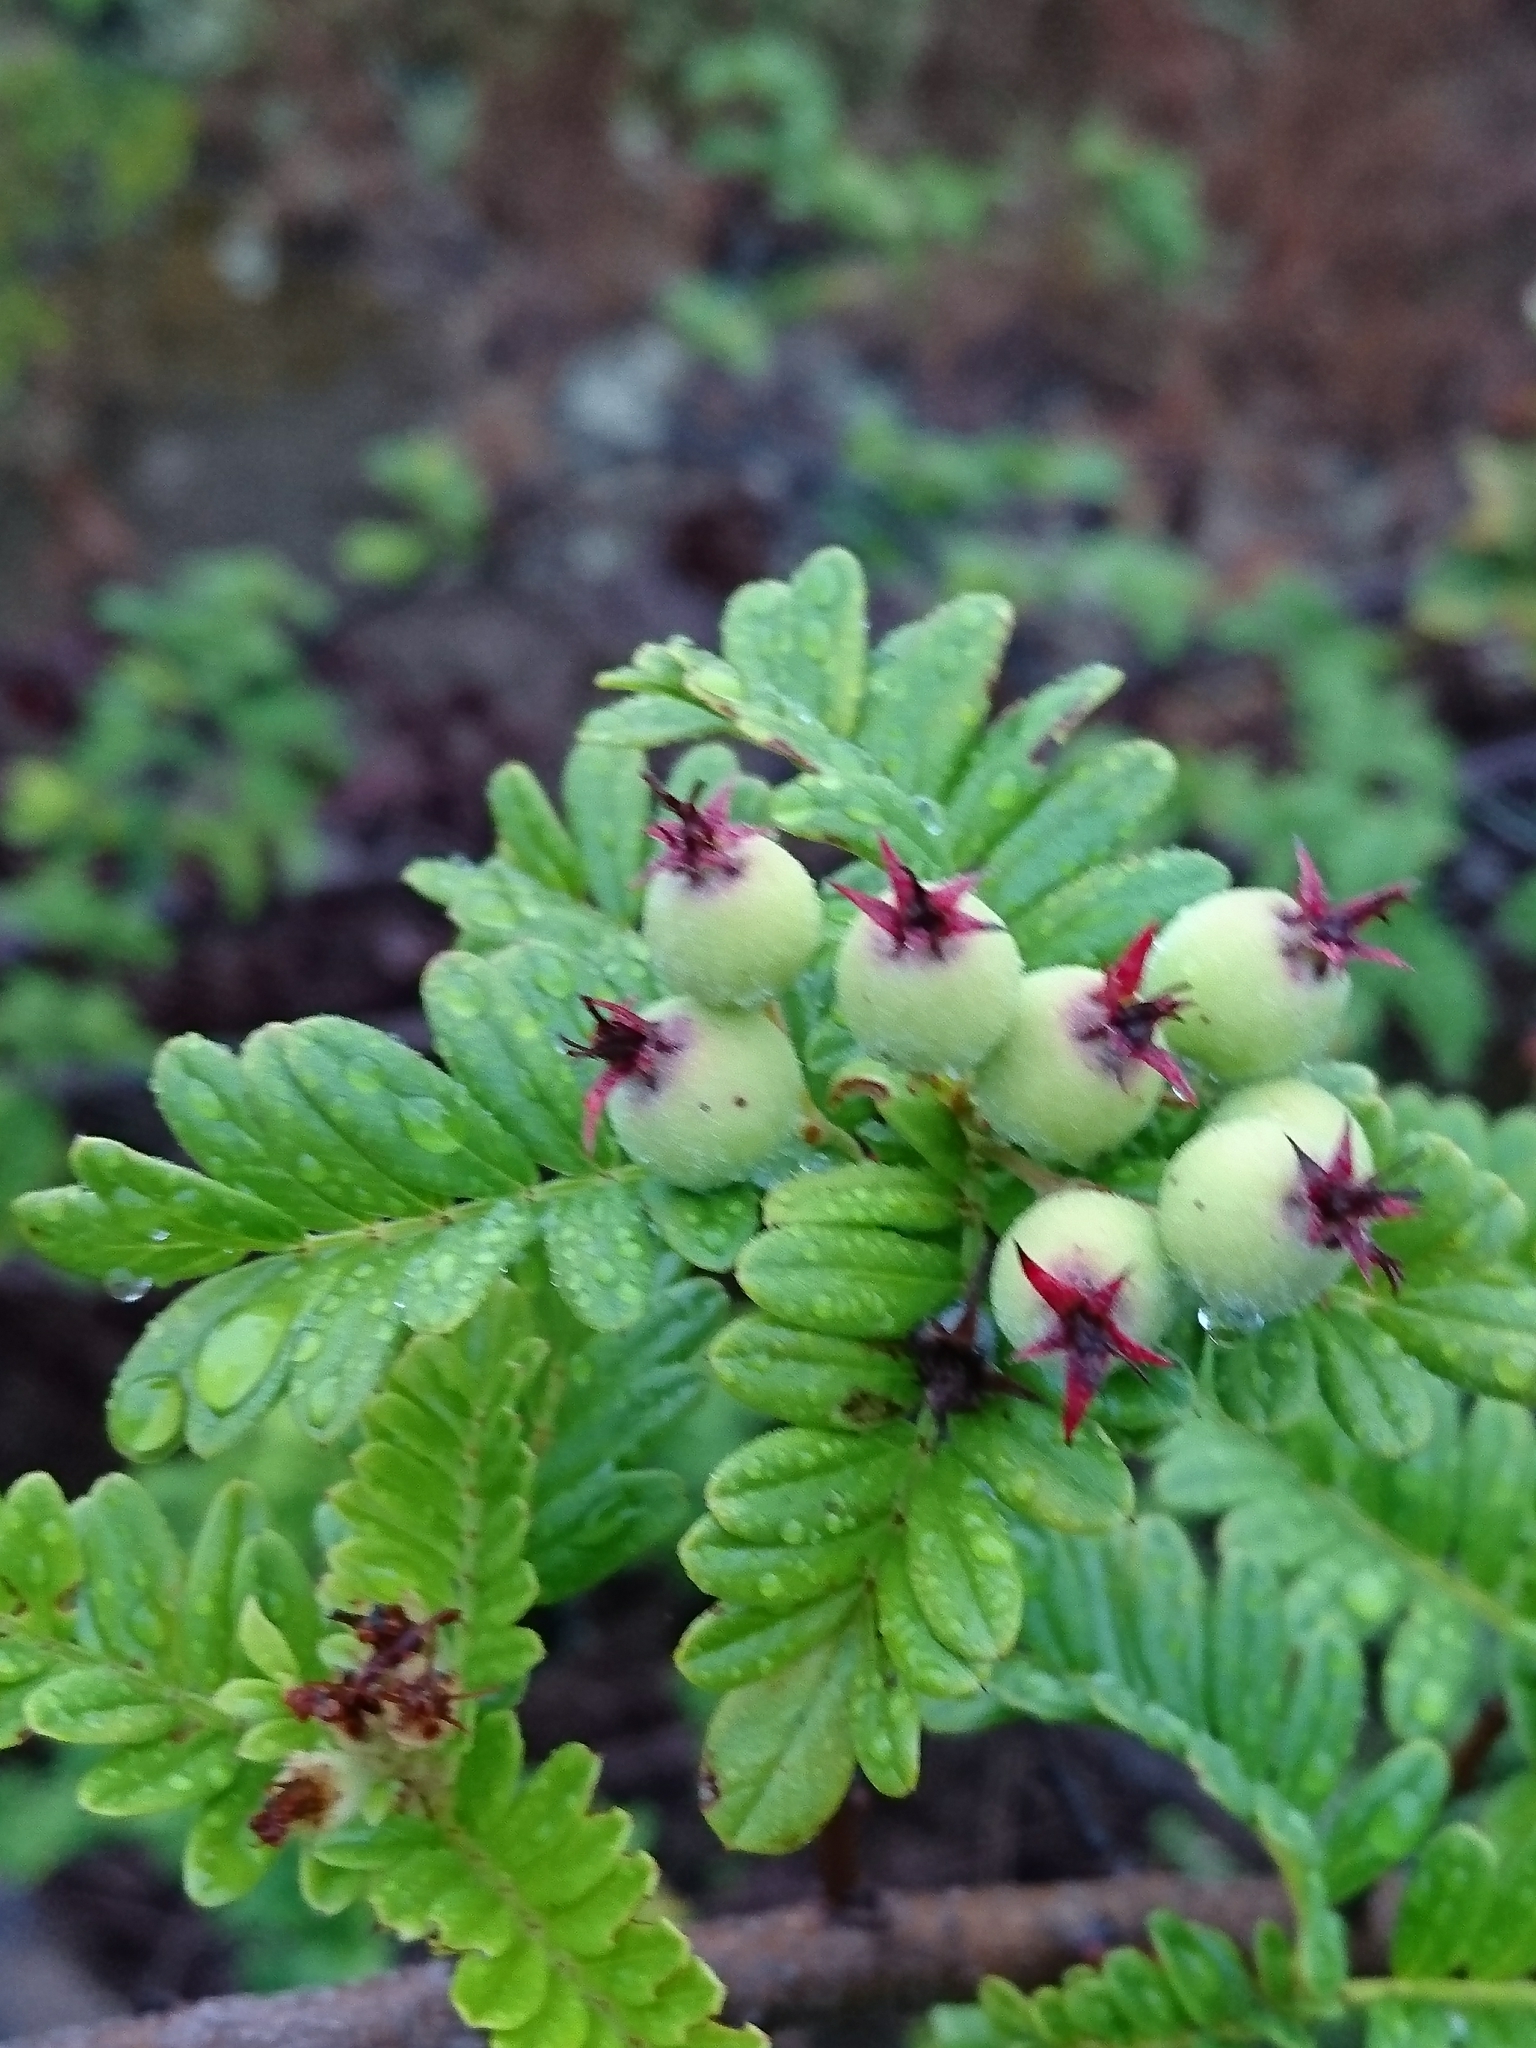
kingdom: Plantae
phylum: Tracheophyta
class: Magnoliopsida
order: Rosales
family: Rosaceae
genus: Osteomeles
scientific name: Osteomeles anthyllidifolia
